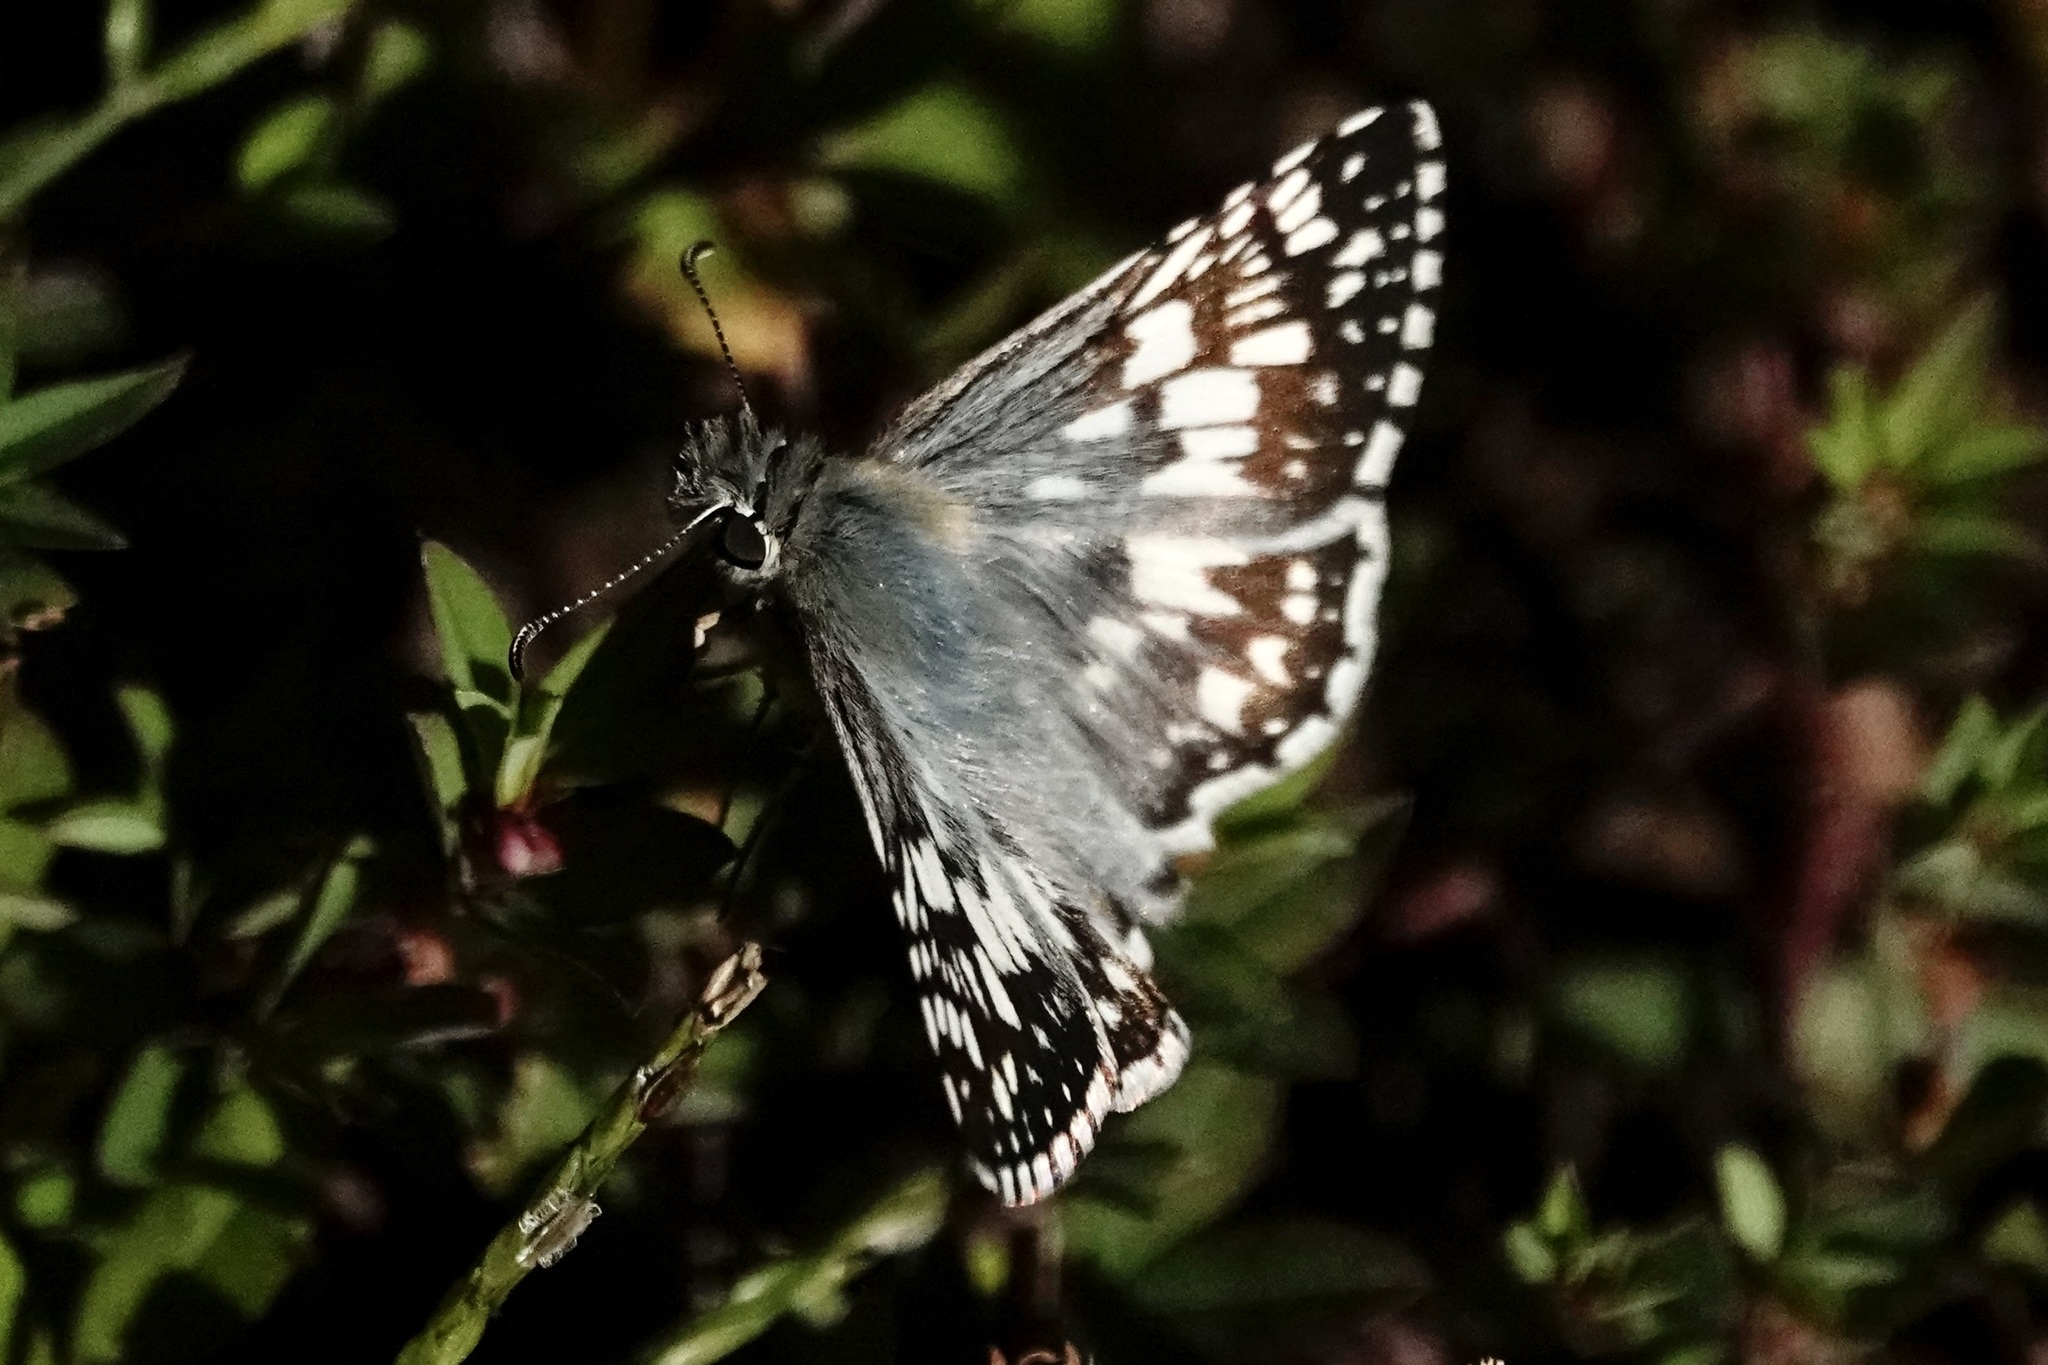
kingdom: Animalia
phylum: Arthropoda
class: Insecta
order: Lepidoptera
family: Hesperiidae
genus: Burnsius
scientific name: Burnsius communis
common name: Common checkered-skipper
